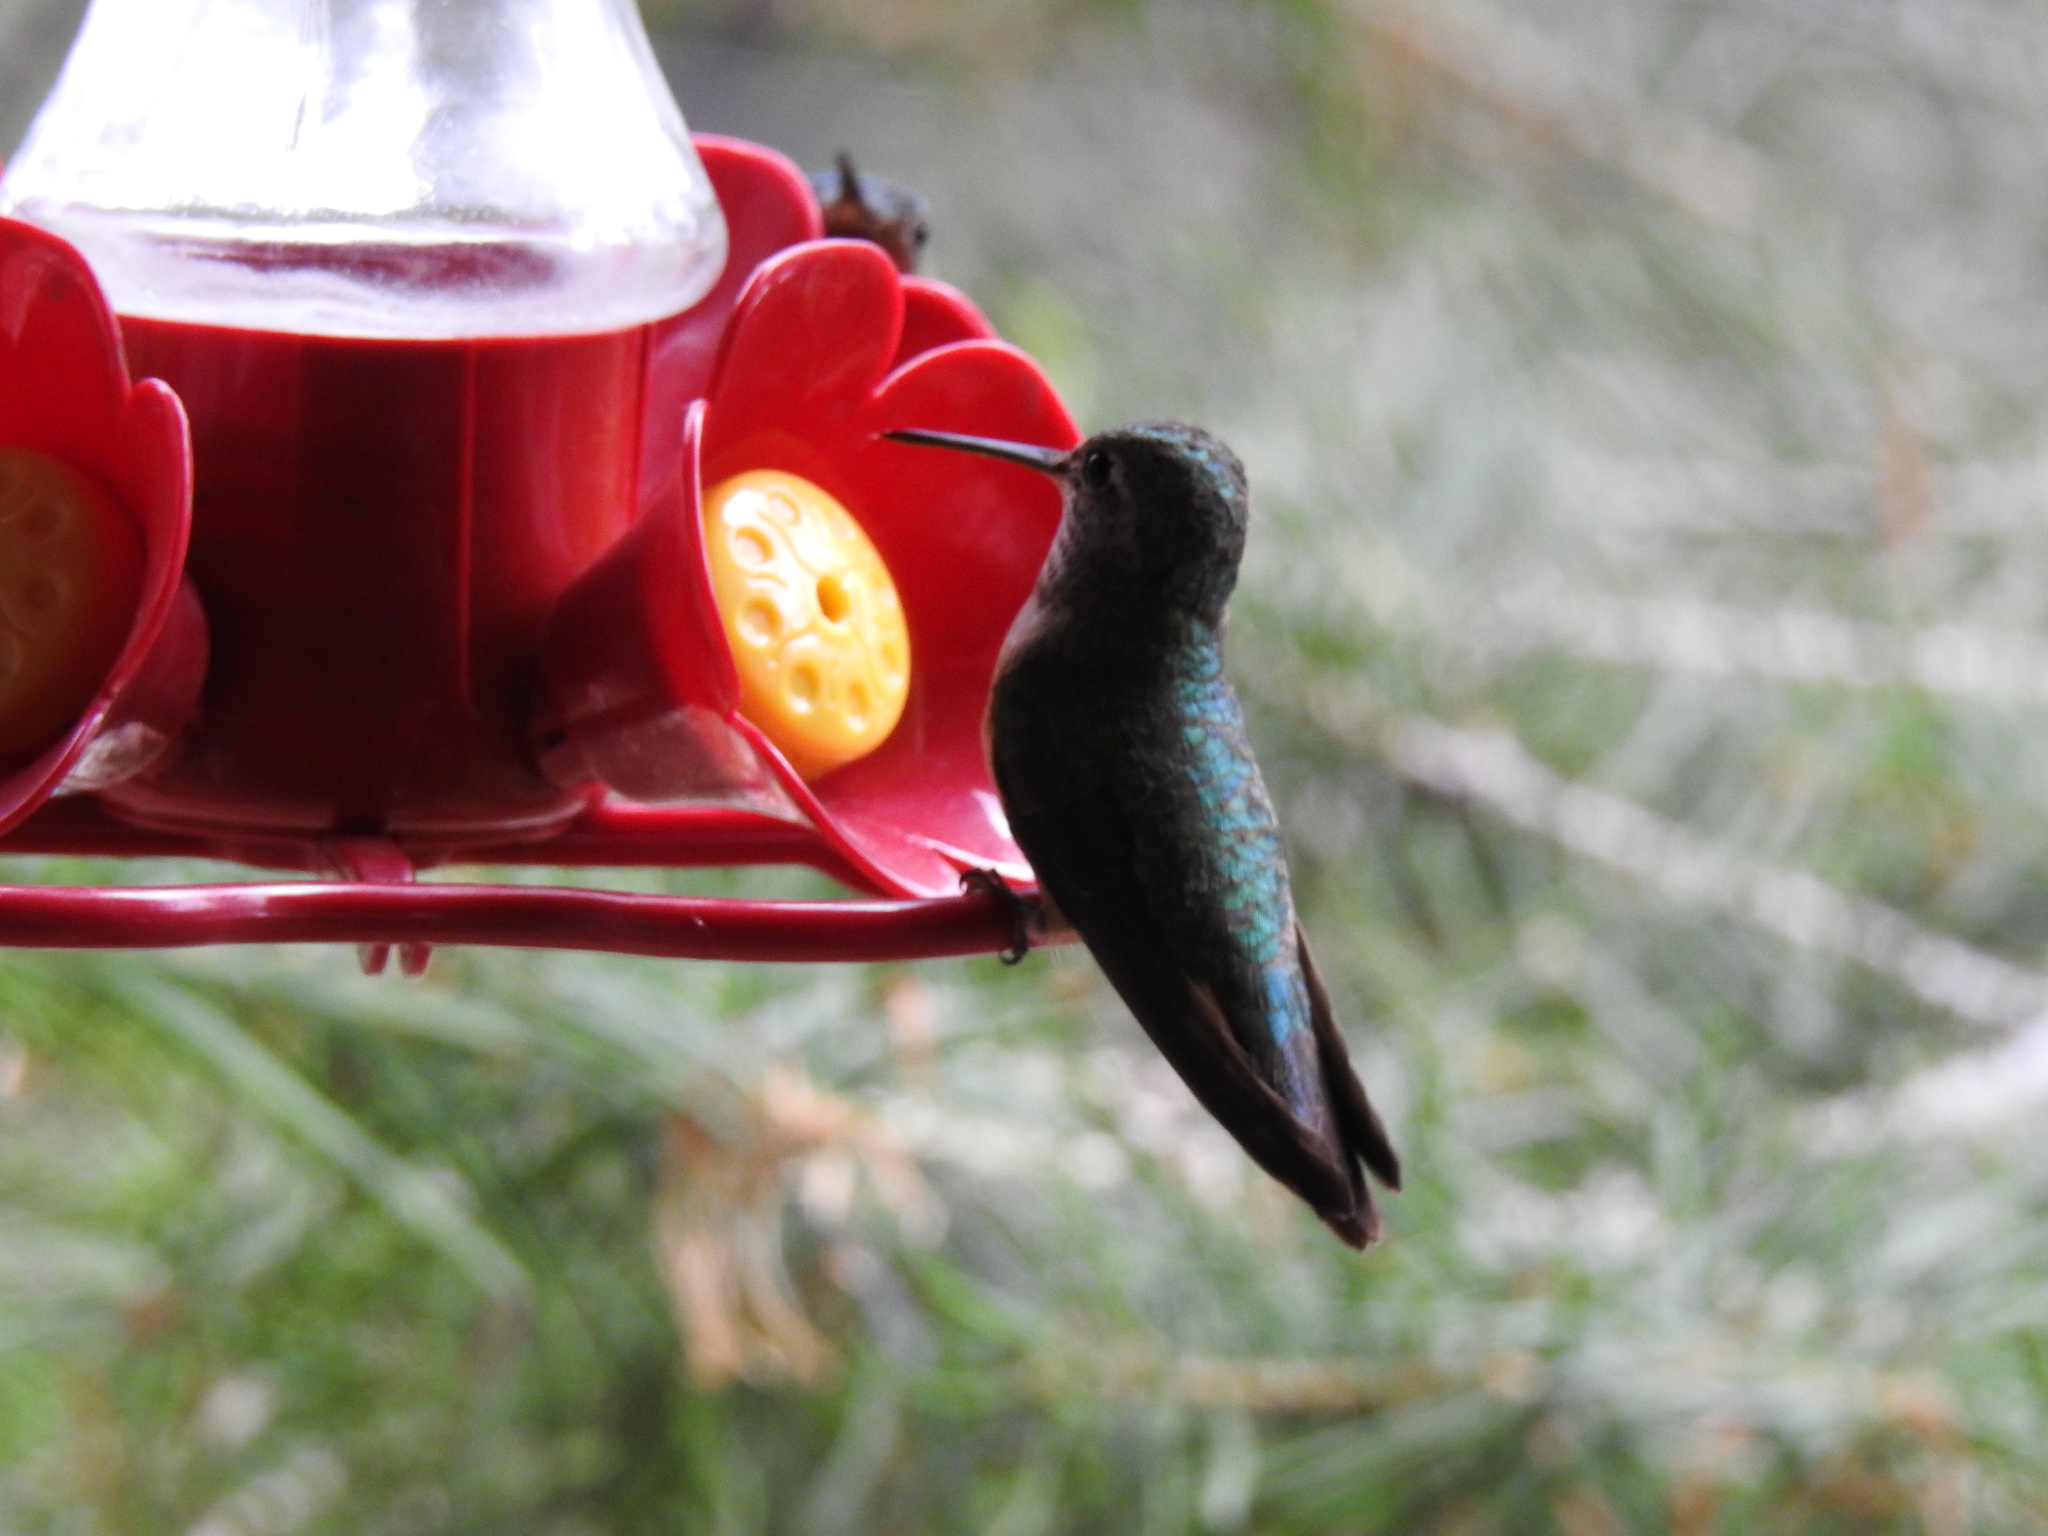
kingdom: Animalia
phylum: Chordata
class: Aves
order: Apodiformes
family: Trochilidae
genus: Selasphorus
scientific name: Selasphorus platycercus
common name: Broad-tailed hummingbird
